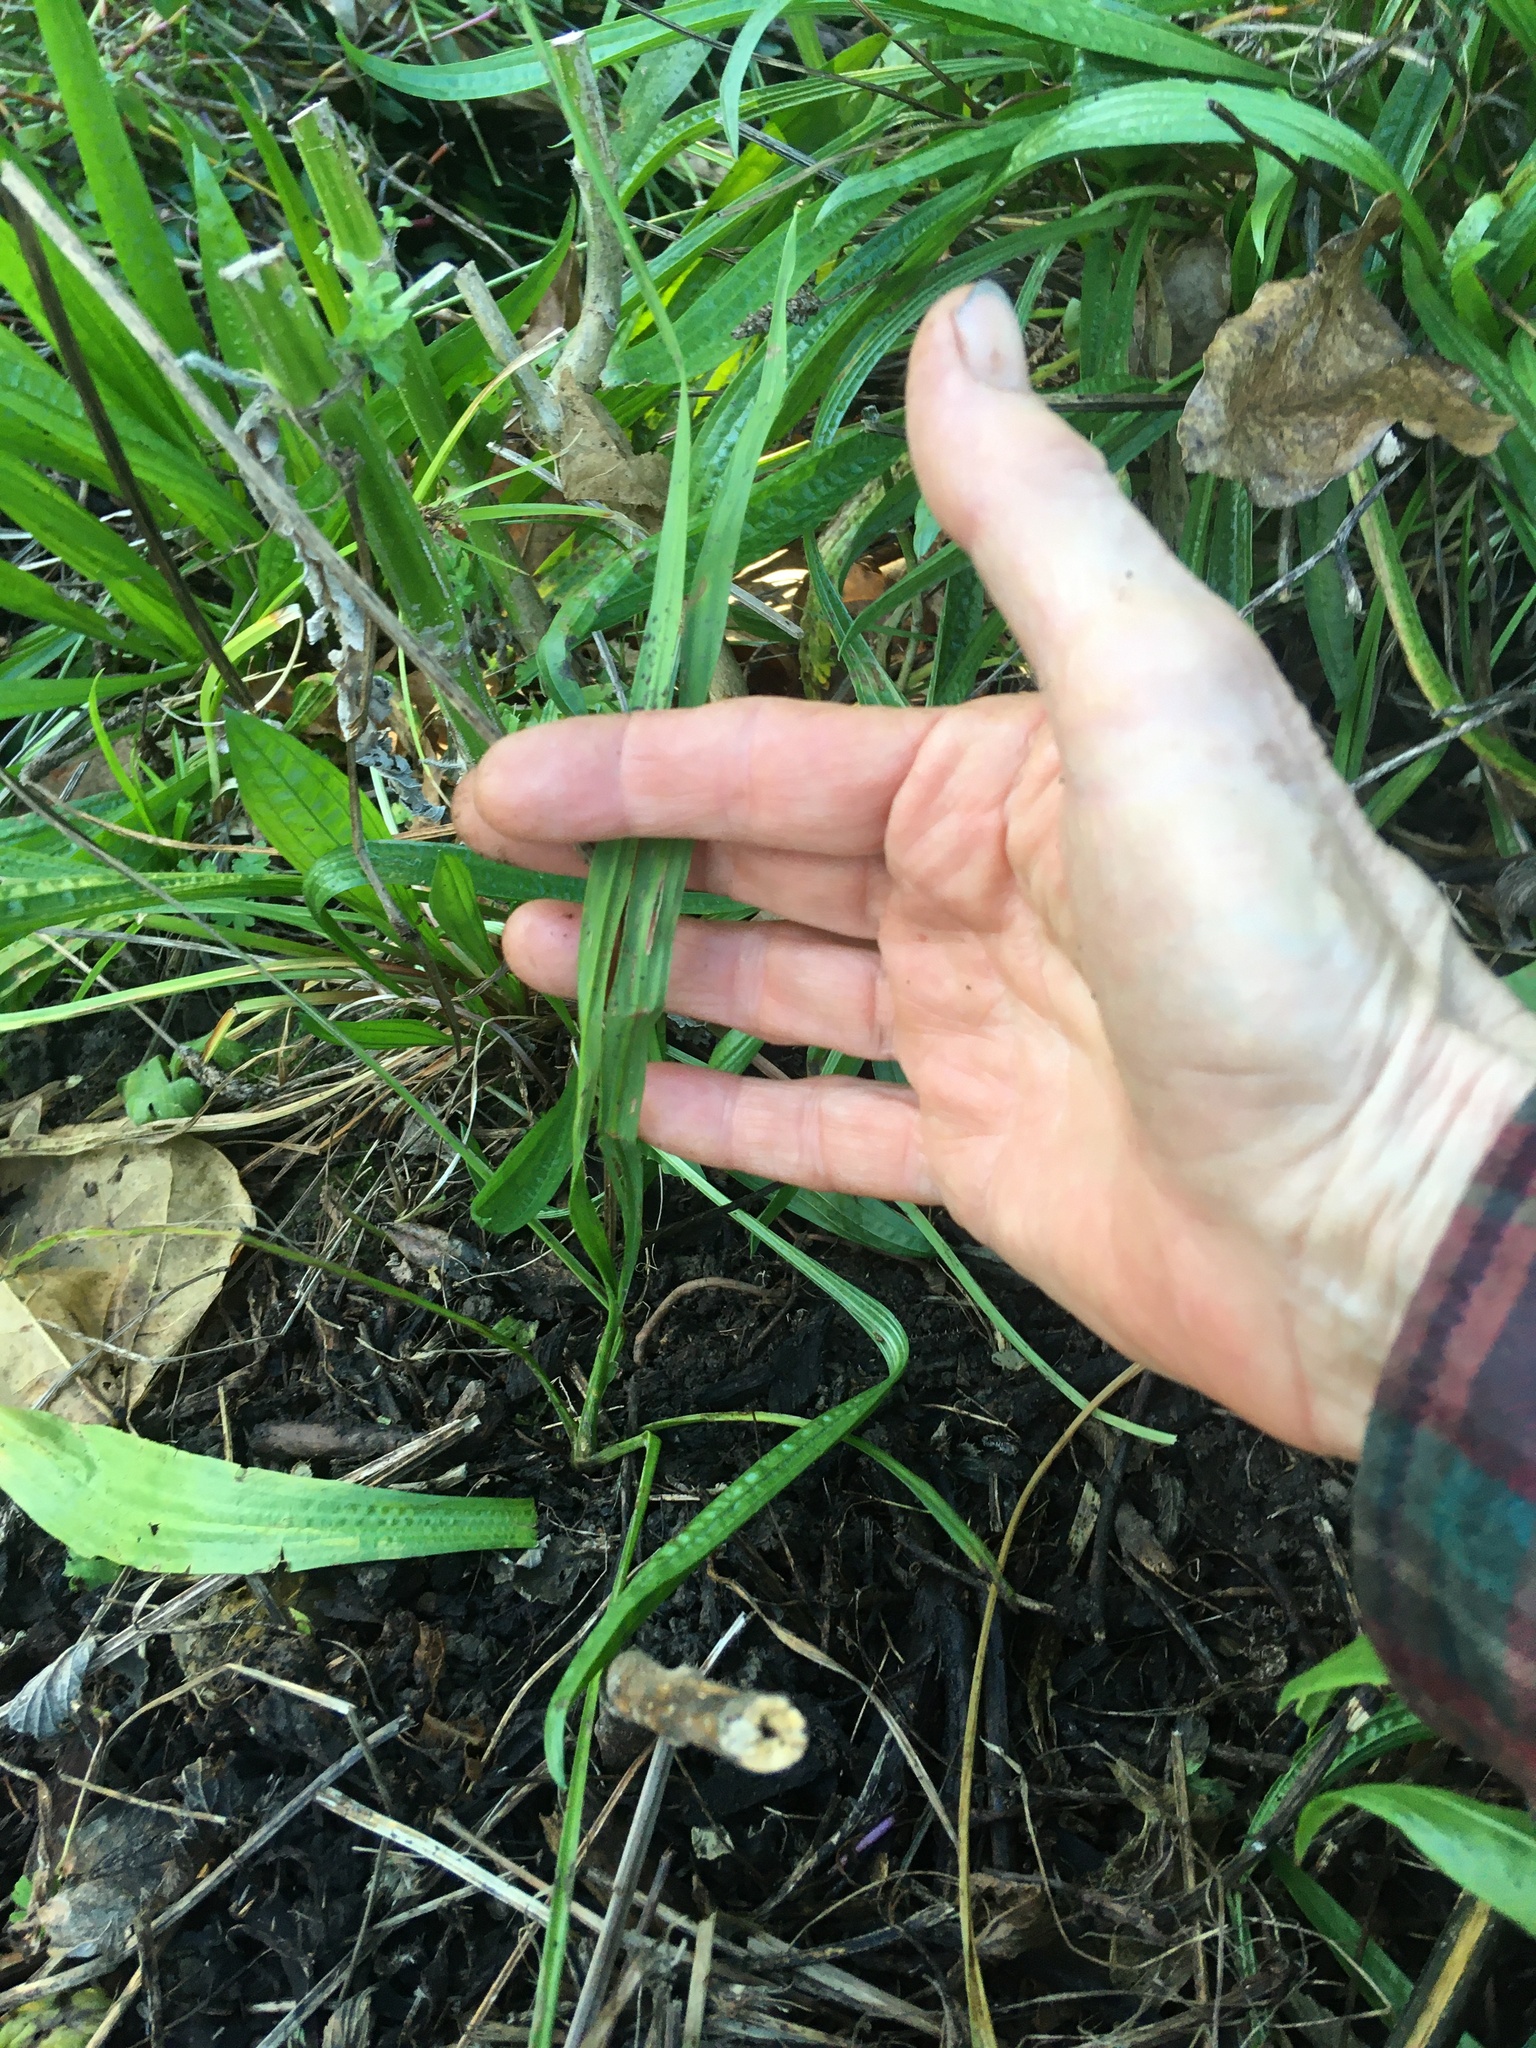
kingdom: Plantae
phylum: Tracheophyta
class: Liliopsida
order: Asparagales
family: Asparagaceae
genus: Cordyline
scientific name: Cordyline australis
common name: Cabbage-palm
